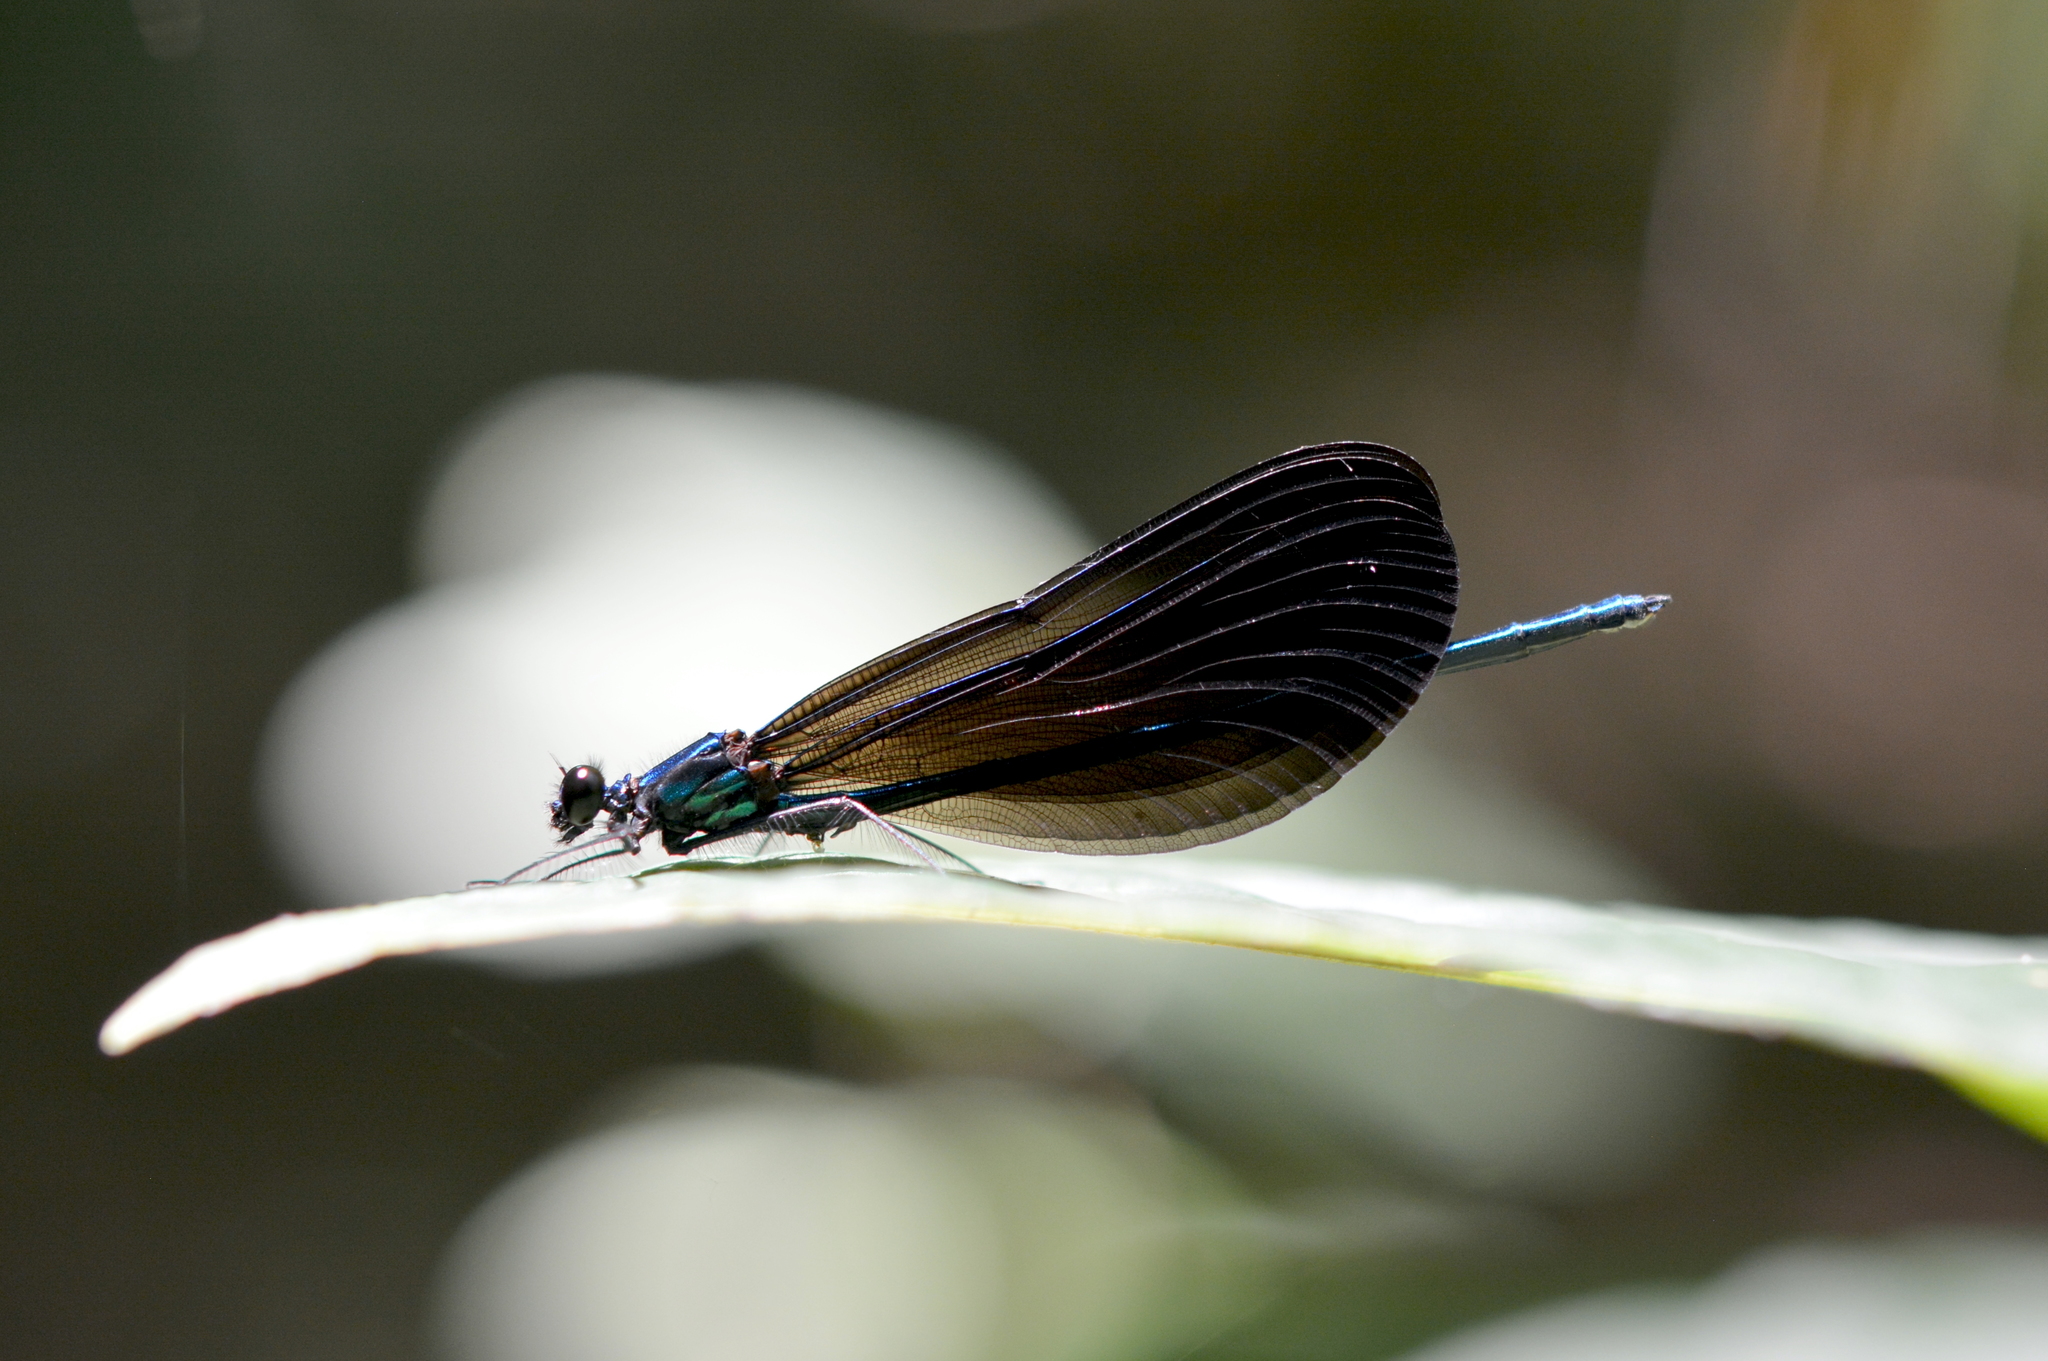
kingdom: Animalia
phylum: Arthropoda
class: Insecta
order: Odonata
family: Calopterygidae
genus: Calopteryx
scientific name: Calopteryx maculata
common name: Ebony jewelwing
